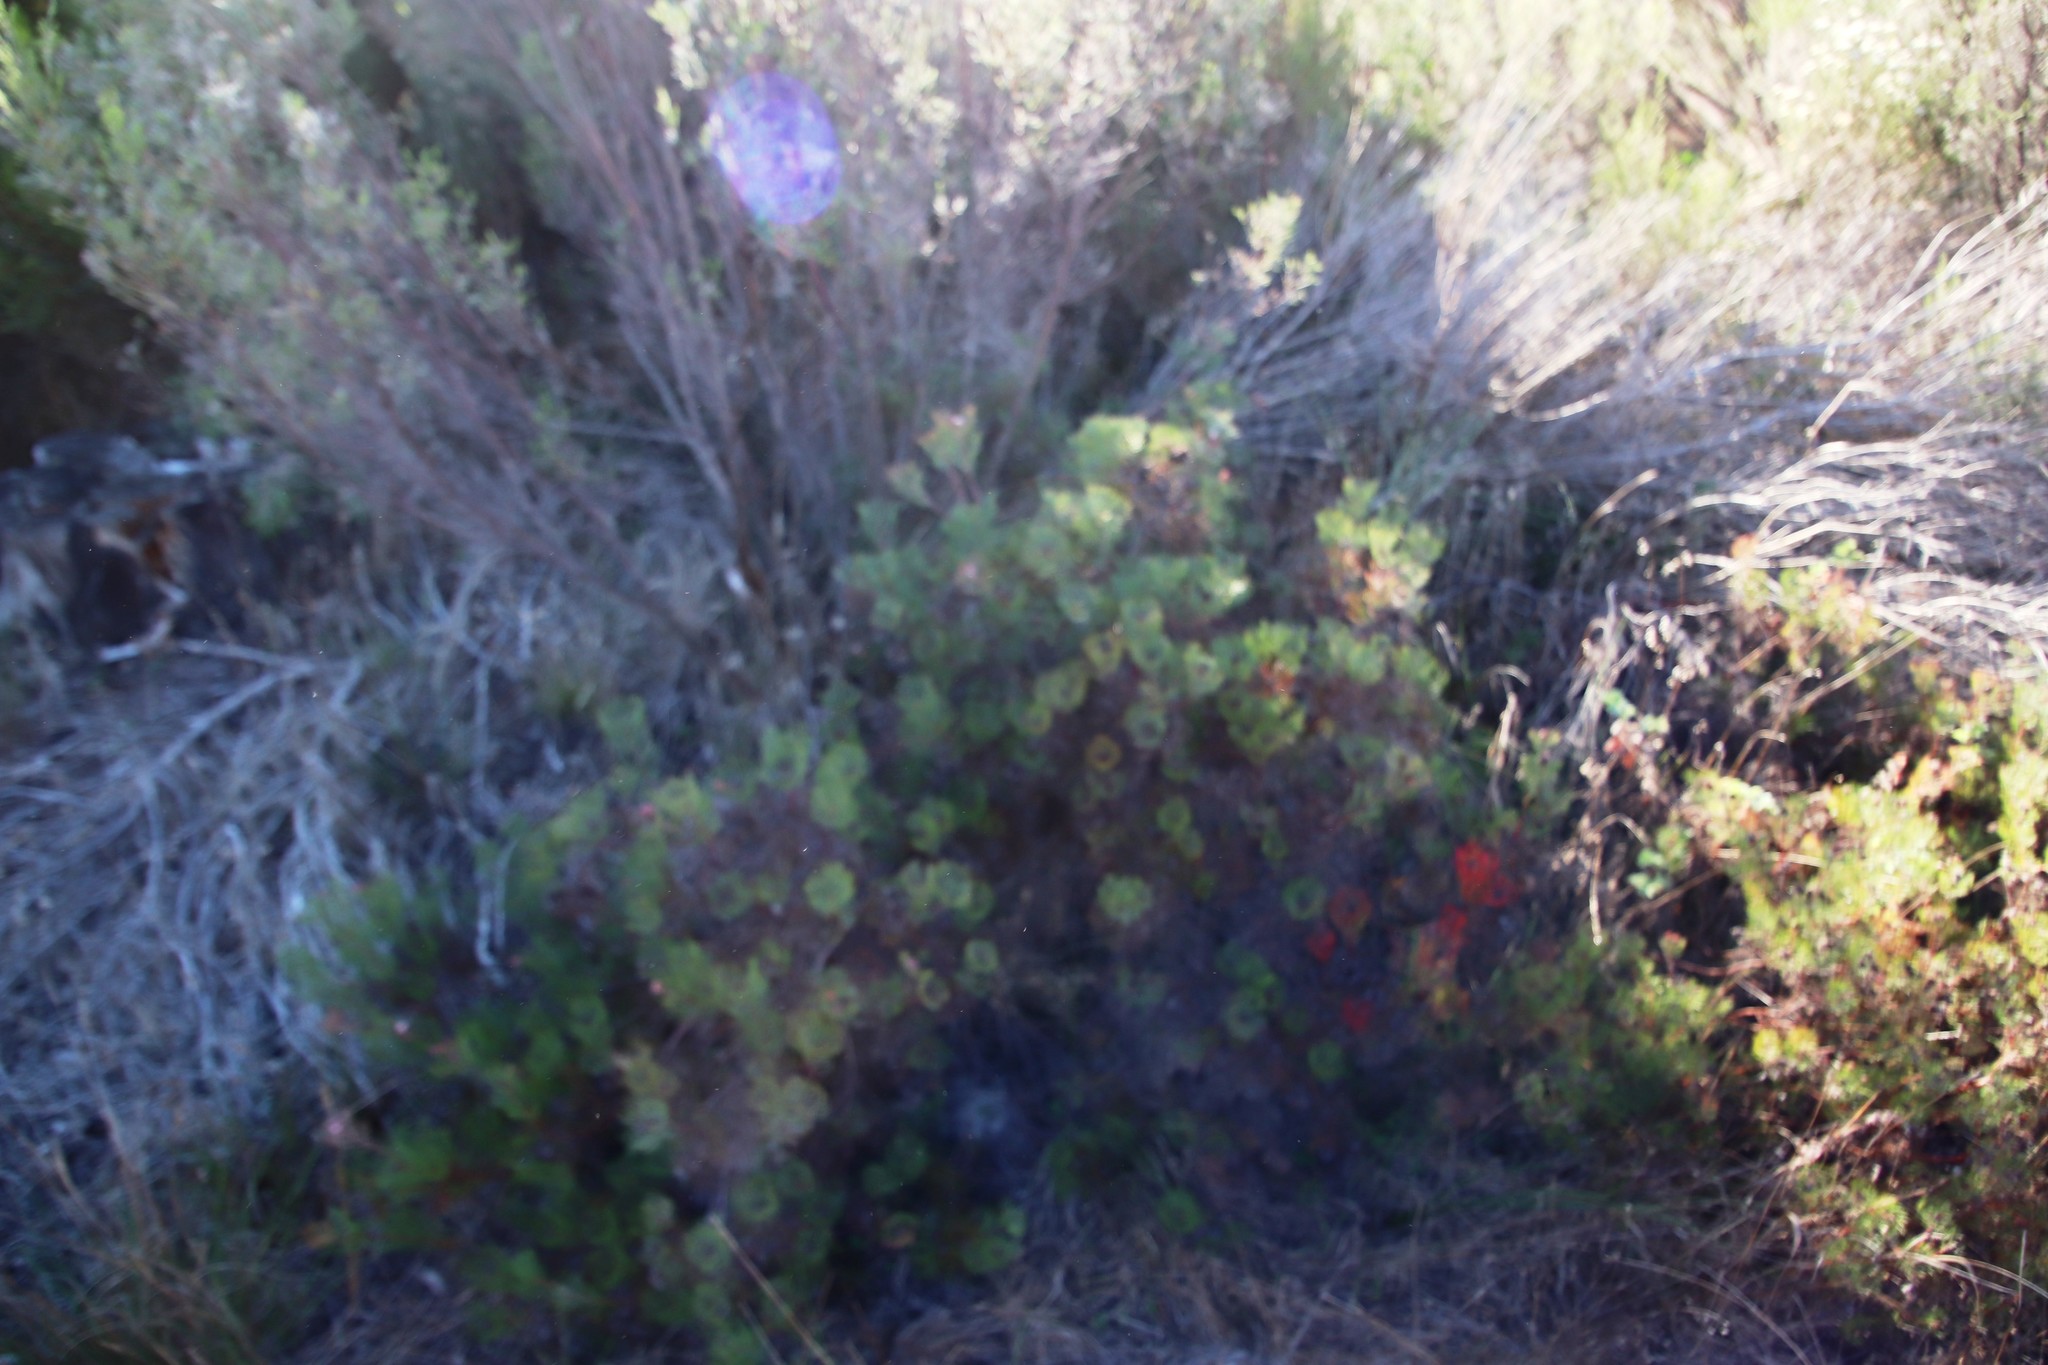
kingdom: Plantae
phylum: Tracheophyta
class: Magnoliopsida
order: Proteales
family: Proteaceae
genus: Serruria
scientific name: Serruria fasciflora
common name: Common pin spiderhead
